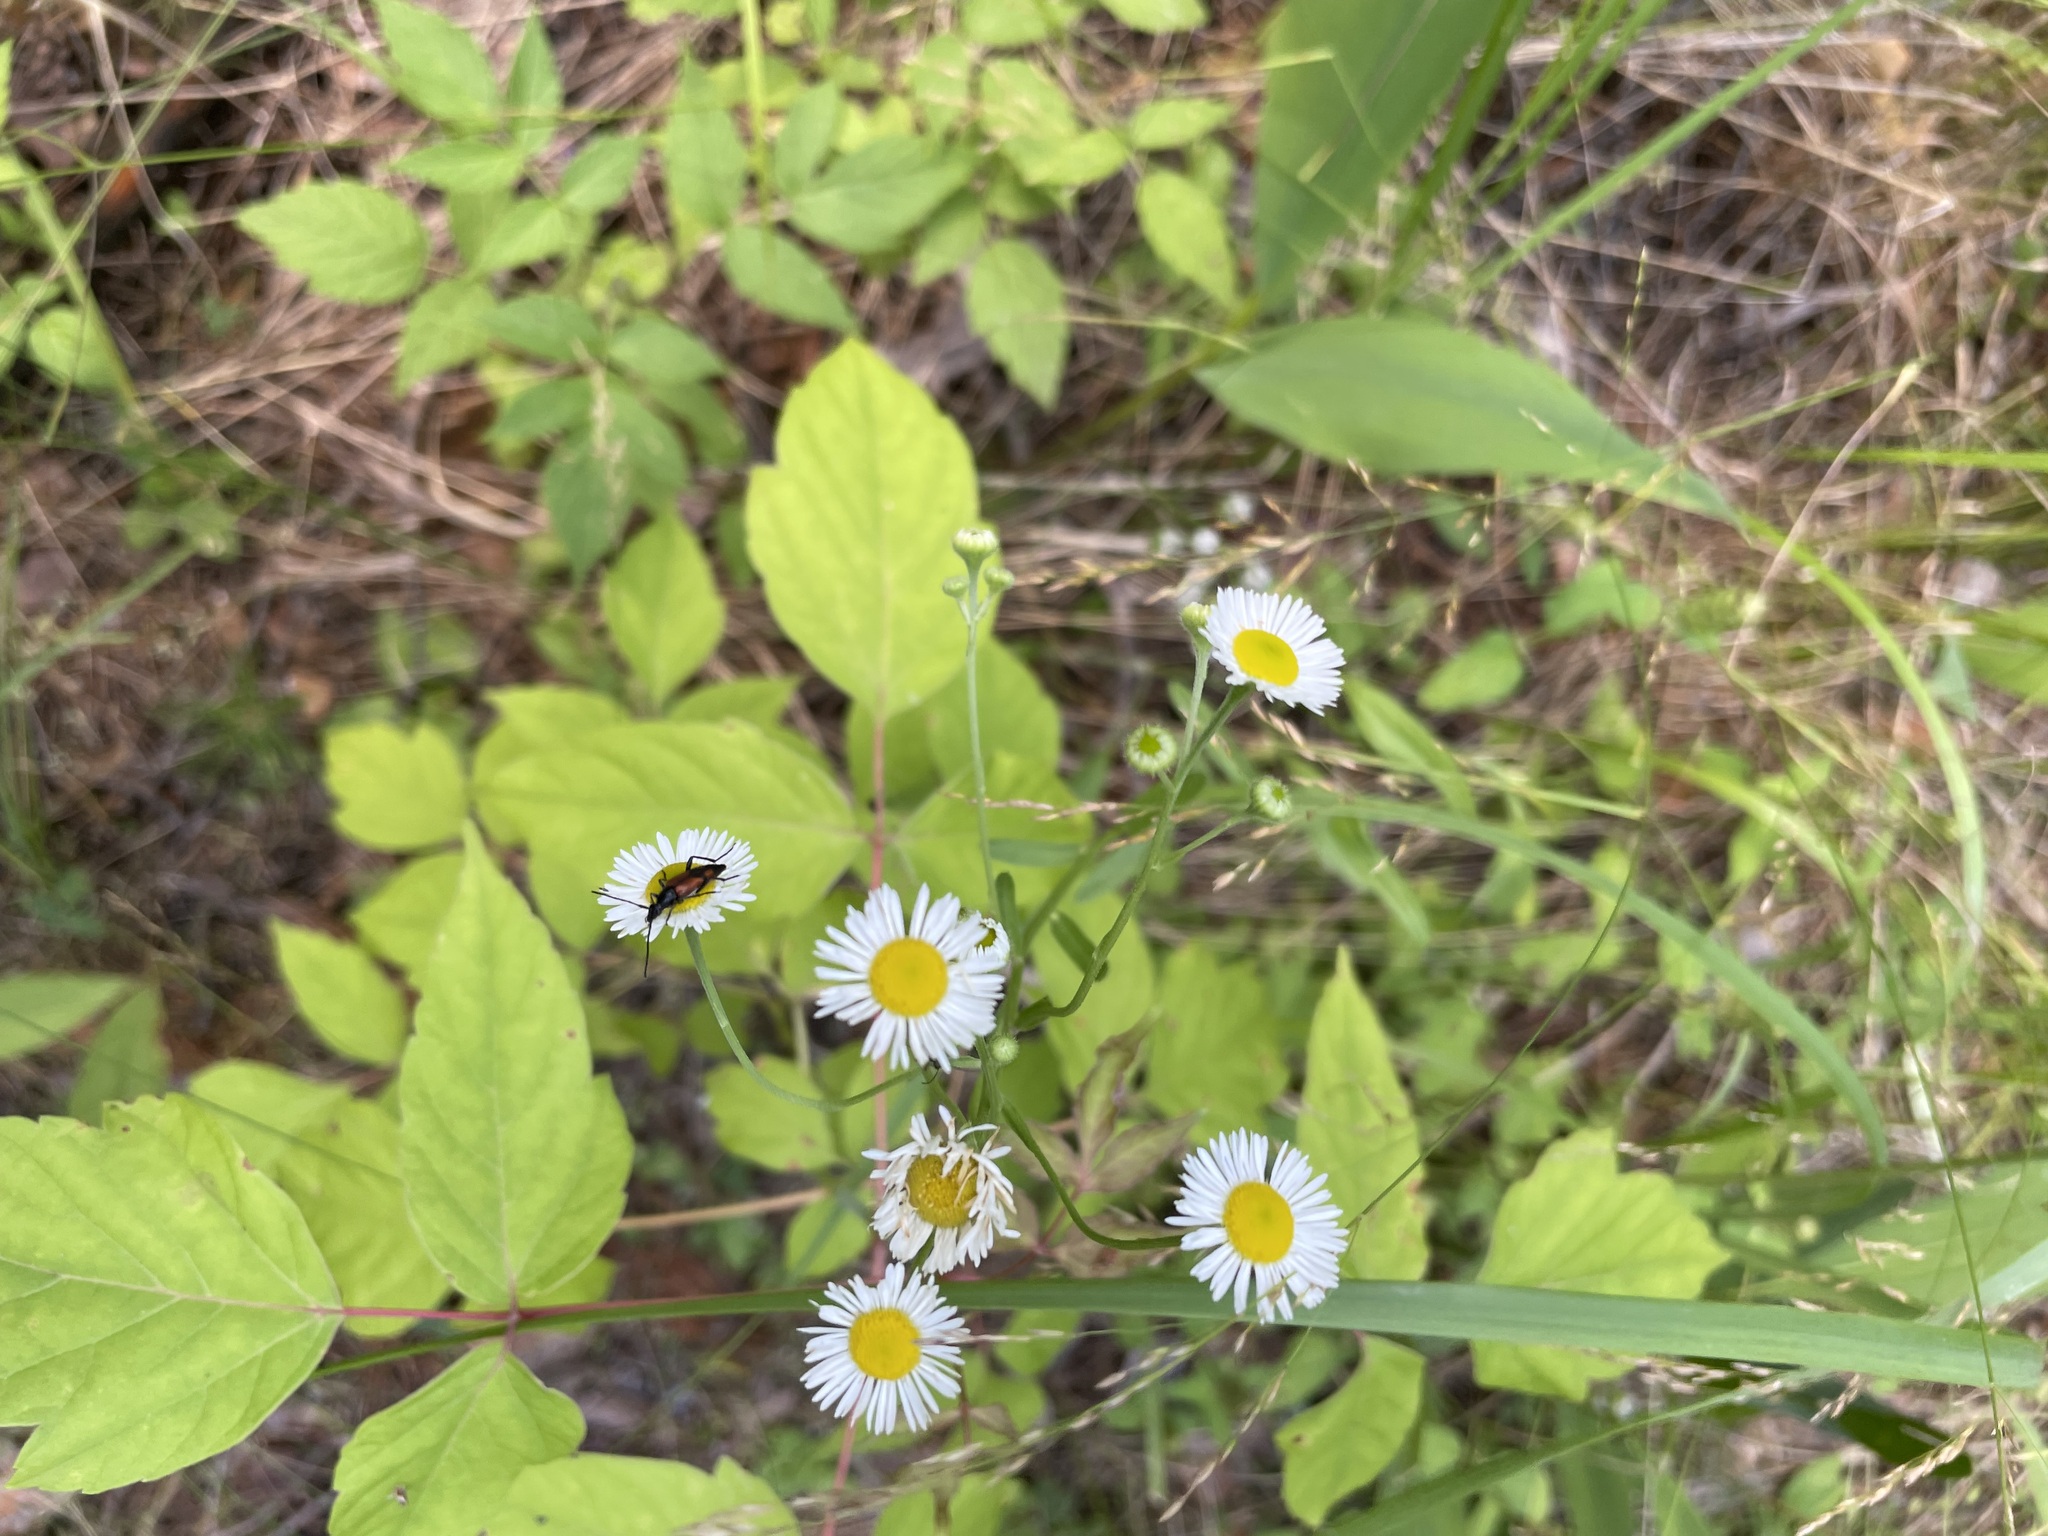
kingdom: Plantae
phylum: Tracheophyta
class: Magnoliopsida
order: Asterales
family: Asteraceae
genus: Erigeron
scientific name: Erigeron strigosus
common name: Common eastern fleabane
